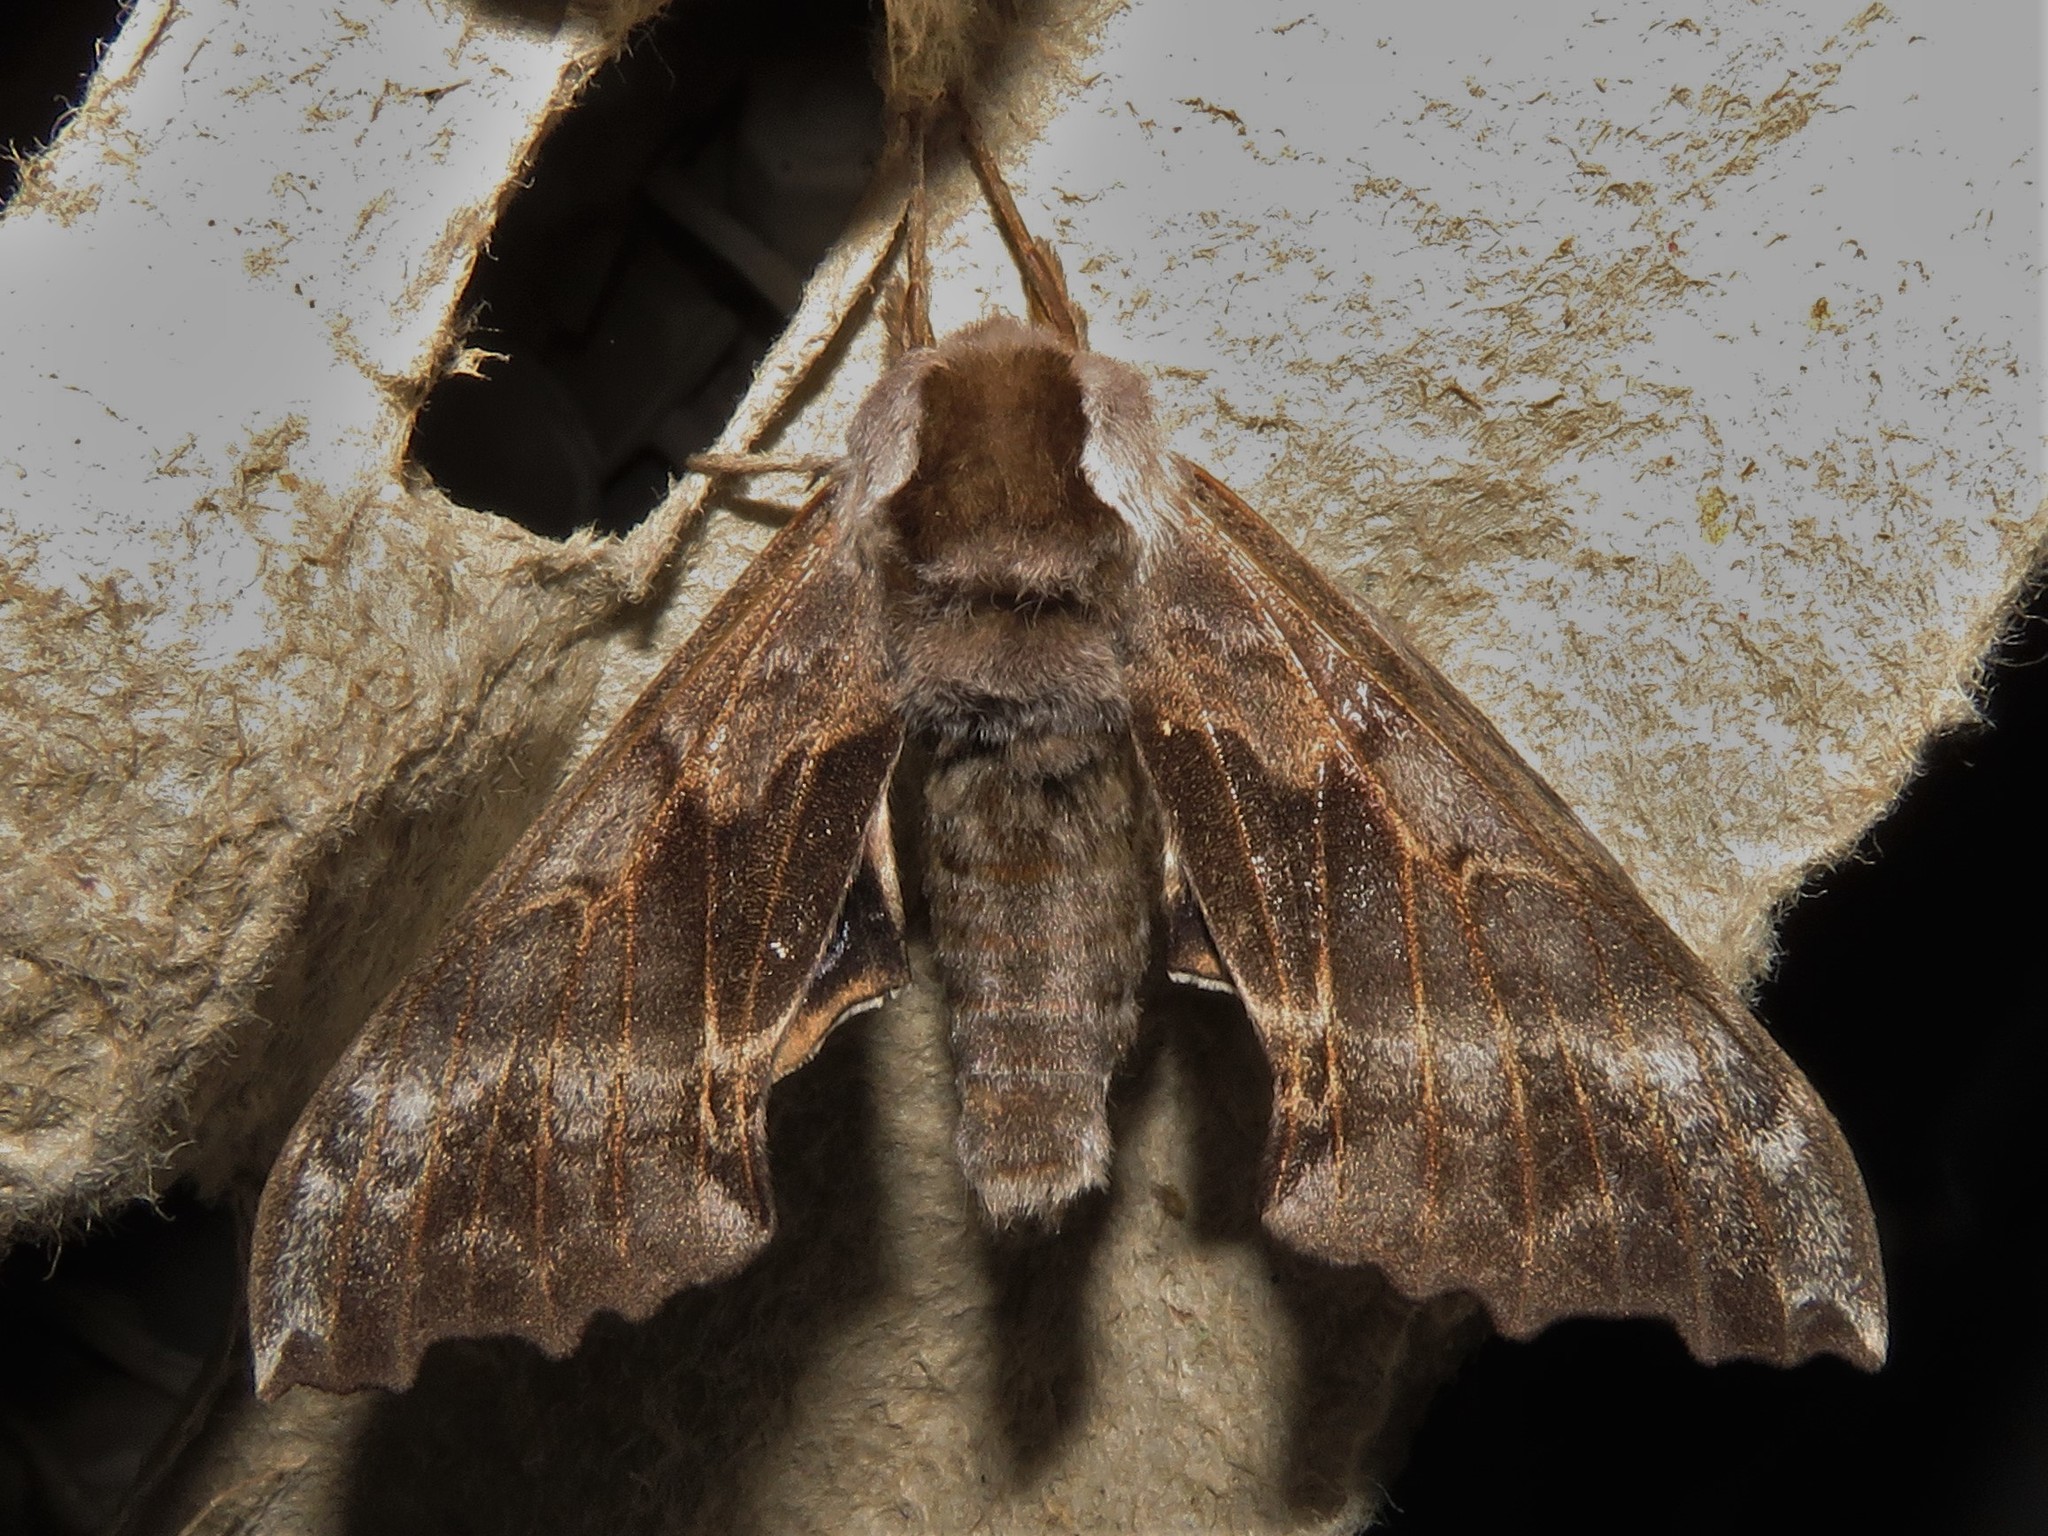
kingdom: Animalia
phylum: Arthropoda
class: Insecta
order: Lepidoptera
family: Sphingidae
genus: Smerinthus
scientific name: Smerinthus cerisyi
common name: Cerisy's sphinx moth
